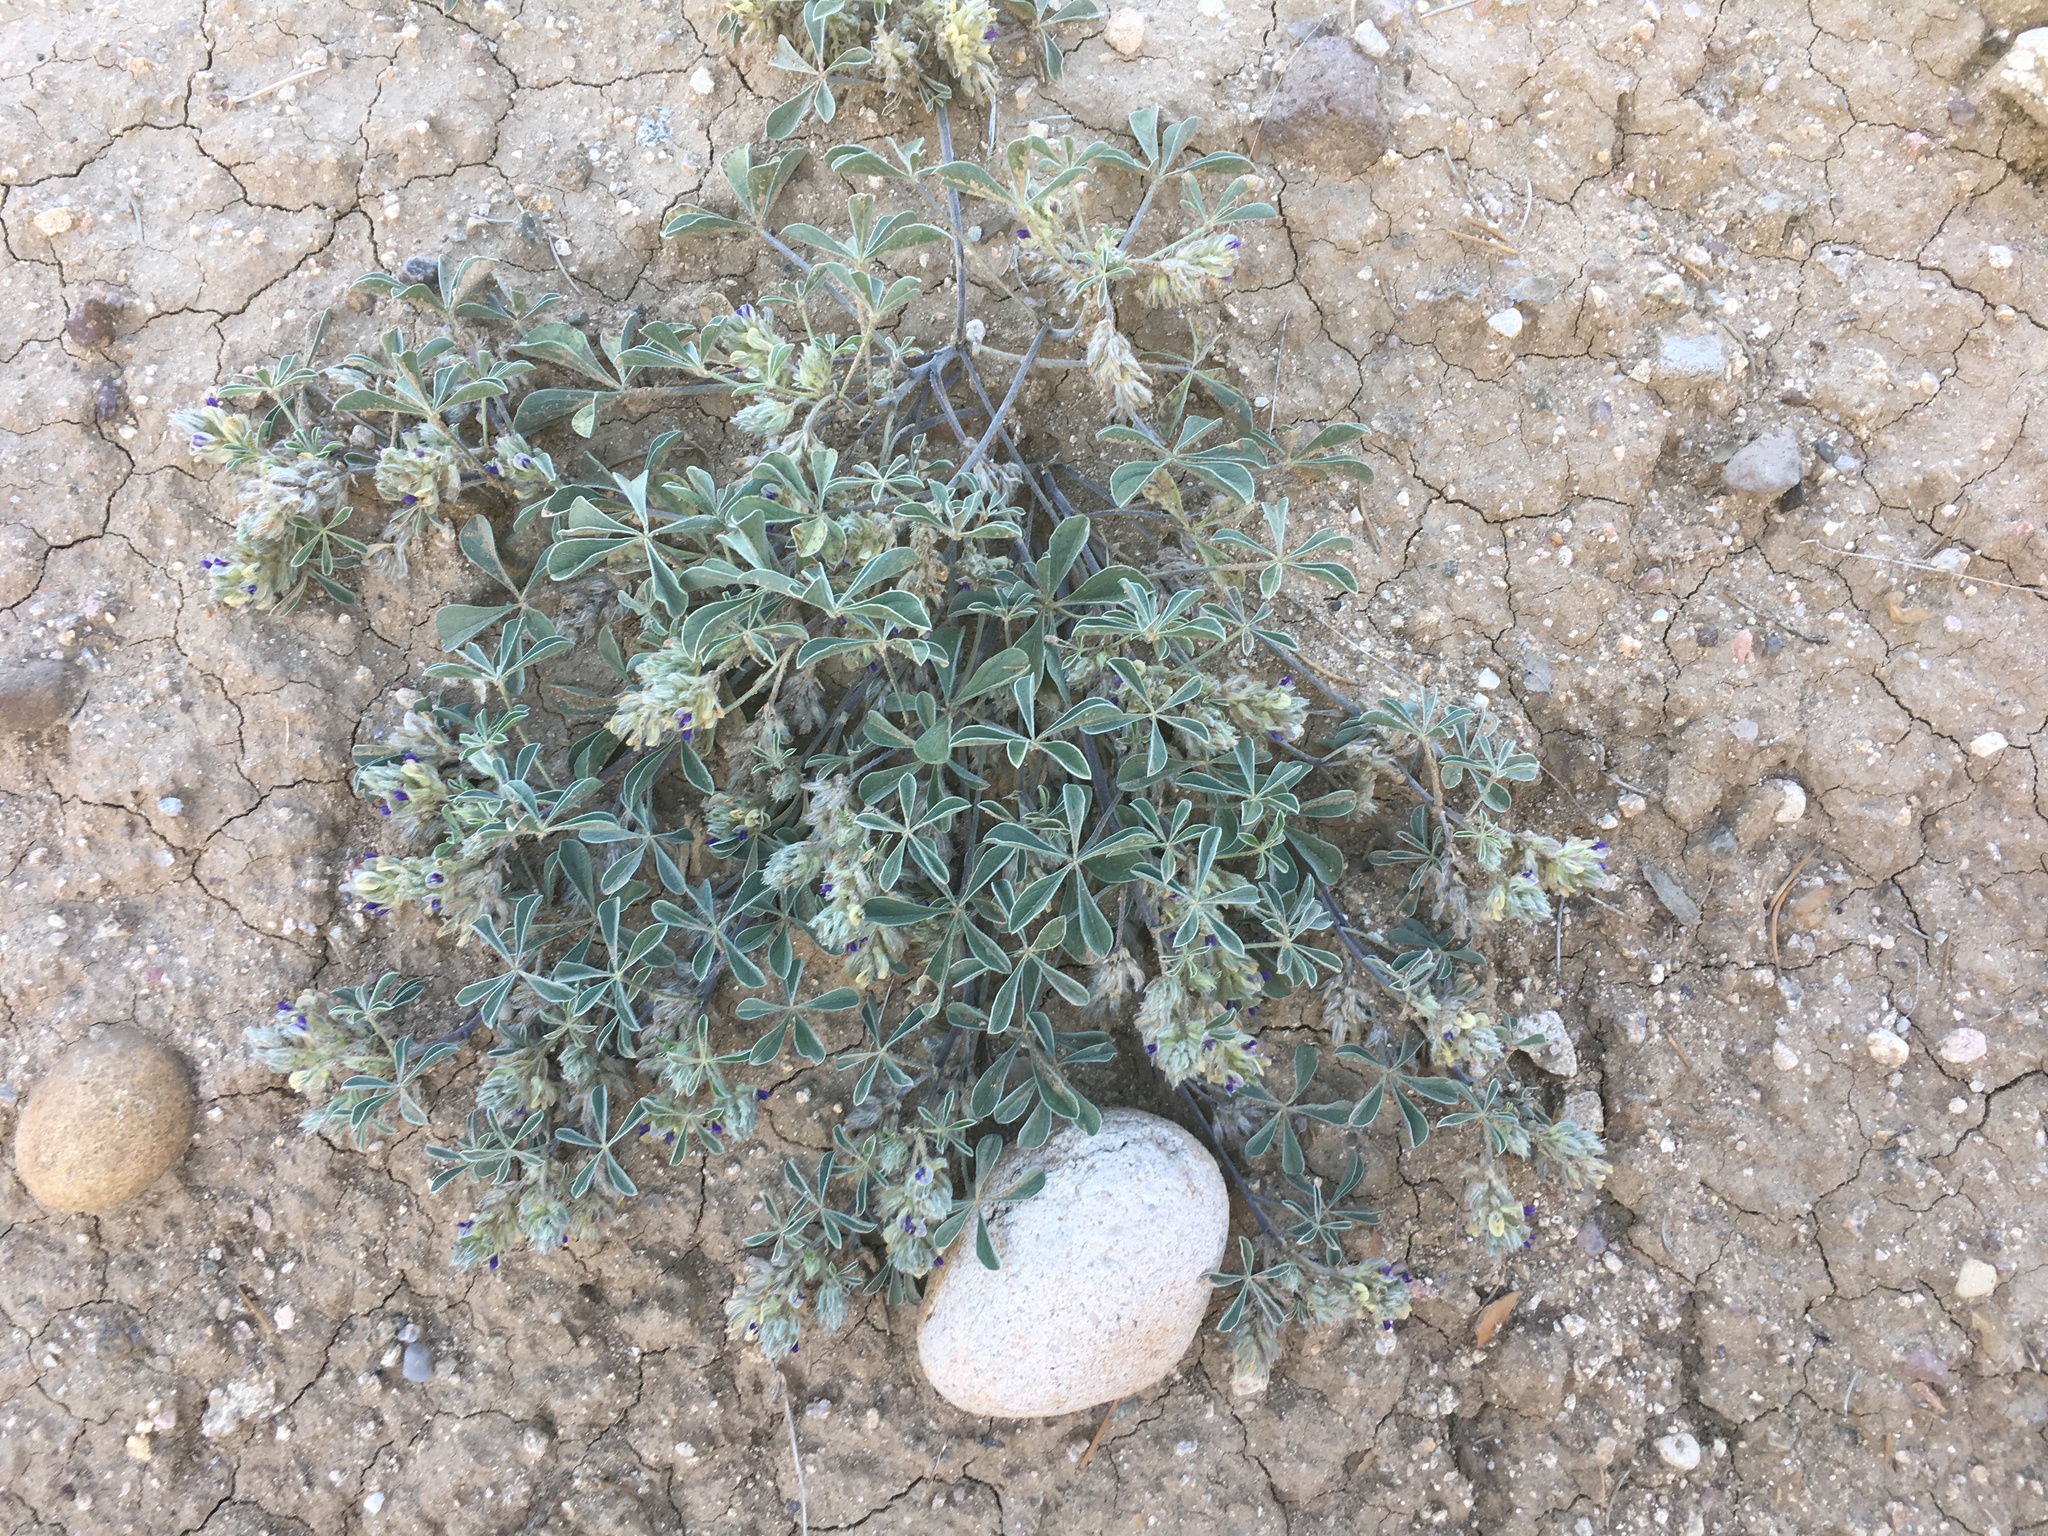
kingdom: Plantae
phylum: Tracheophyta
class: Magnoliopsida
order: Fabales
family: Fabaceae
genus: Pediomelum
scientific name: Pediomelum californicum
